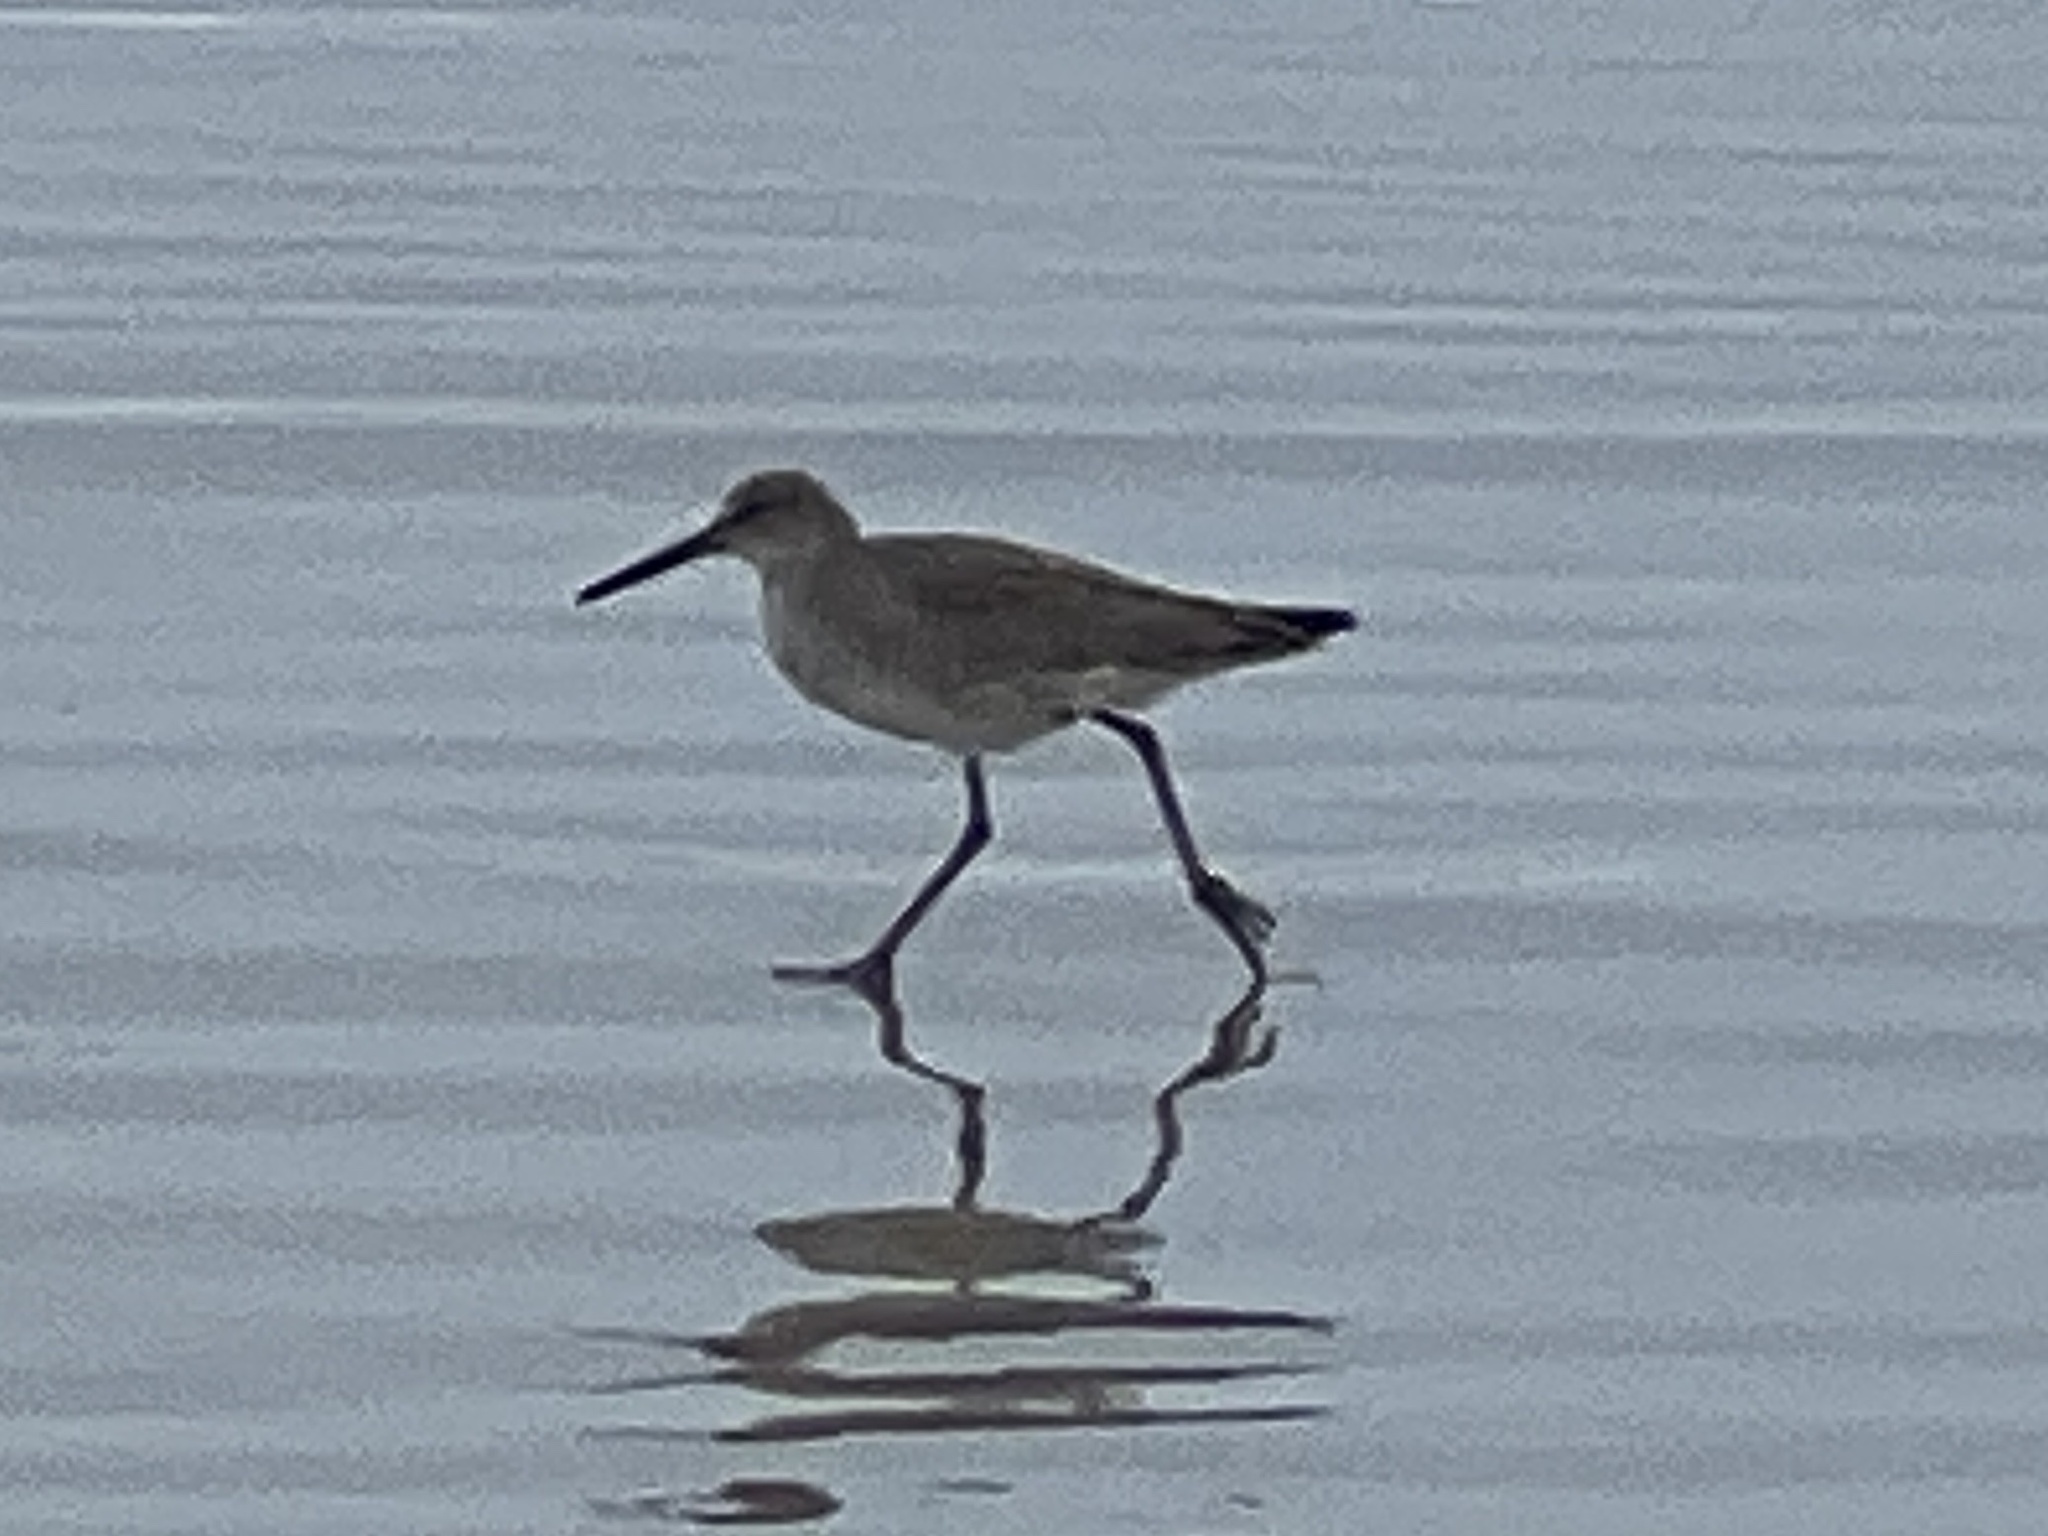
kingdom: Animalia
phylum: Chordata
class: Aves
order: Charadriiformes
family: Scolopacidae
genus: Tringa
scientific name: Tringa semipalmata
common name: Willet
